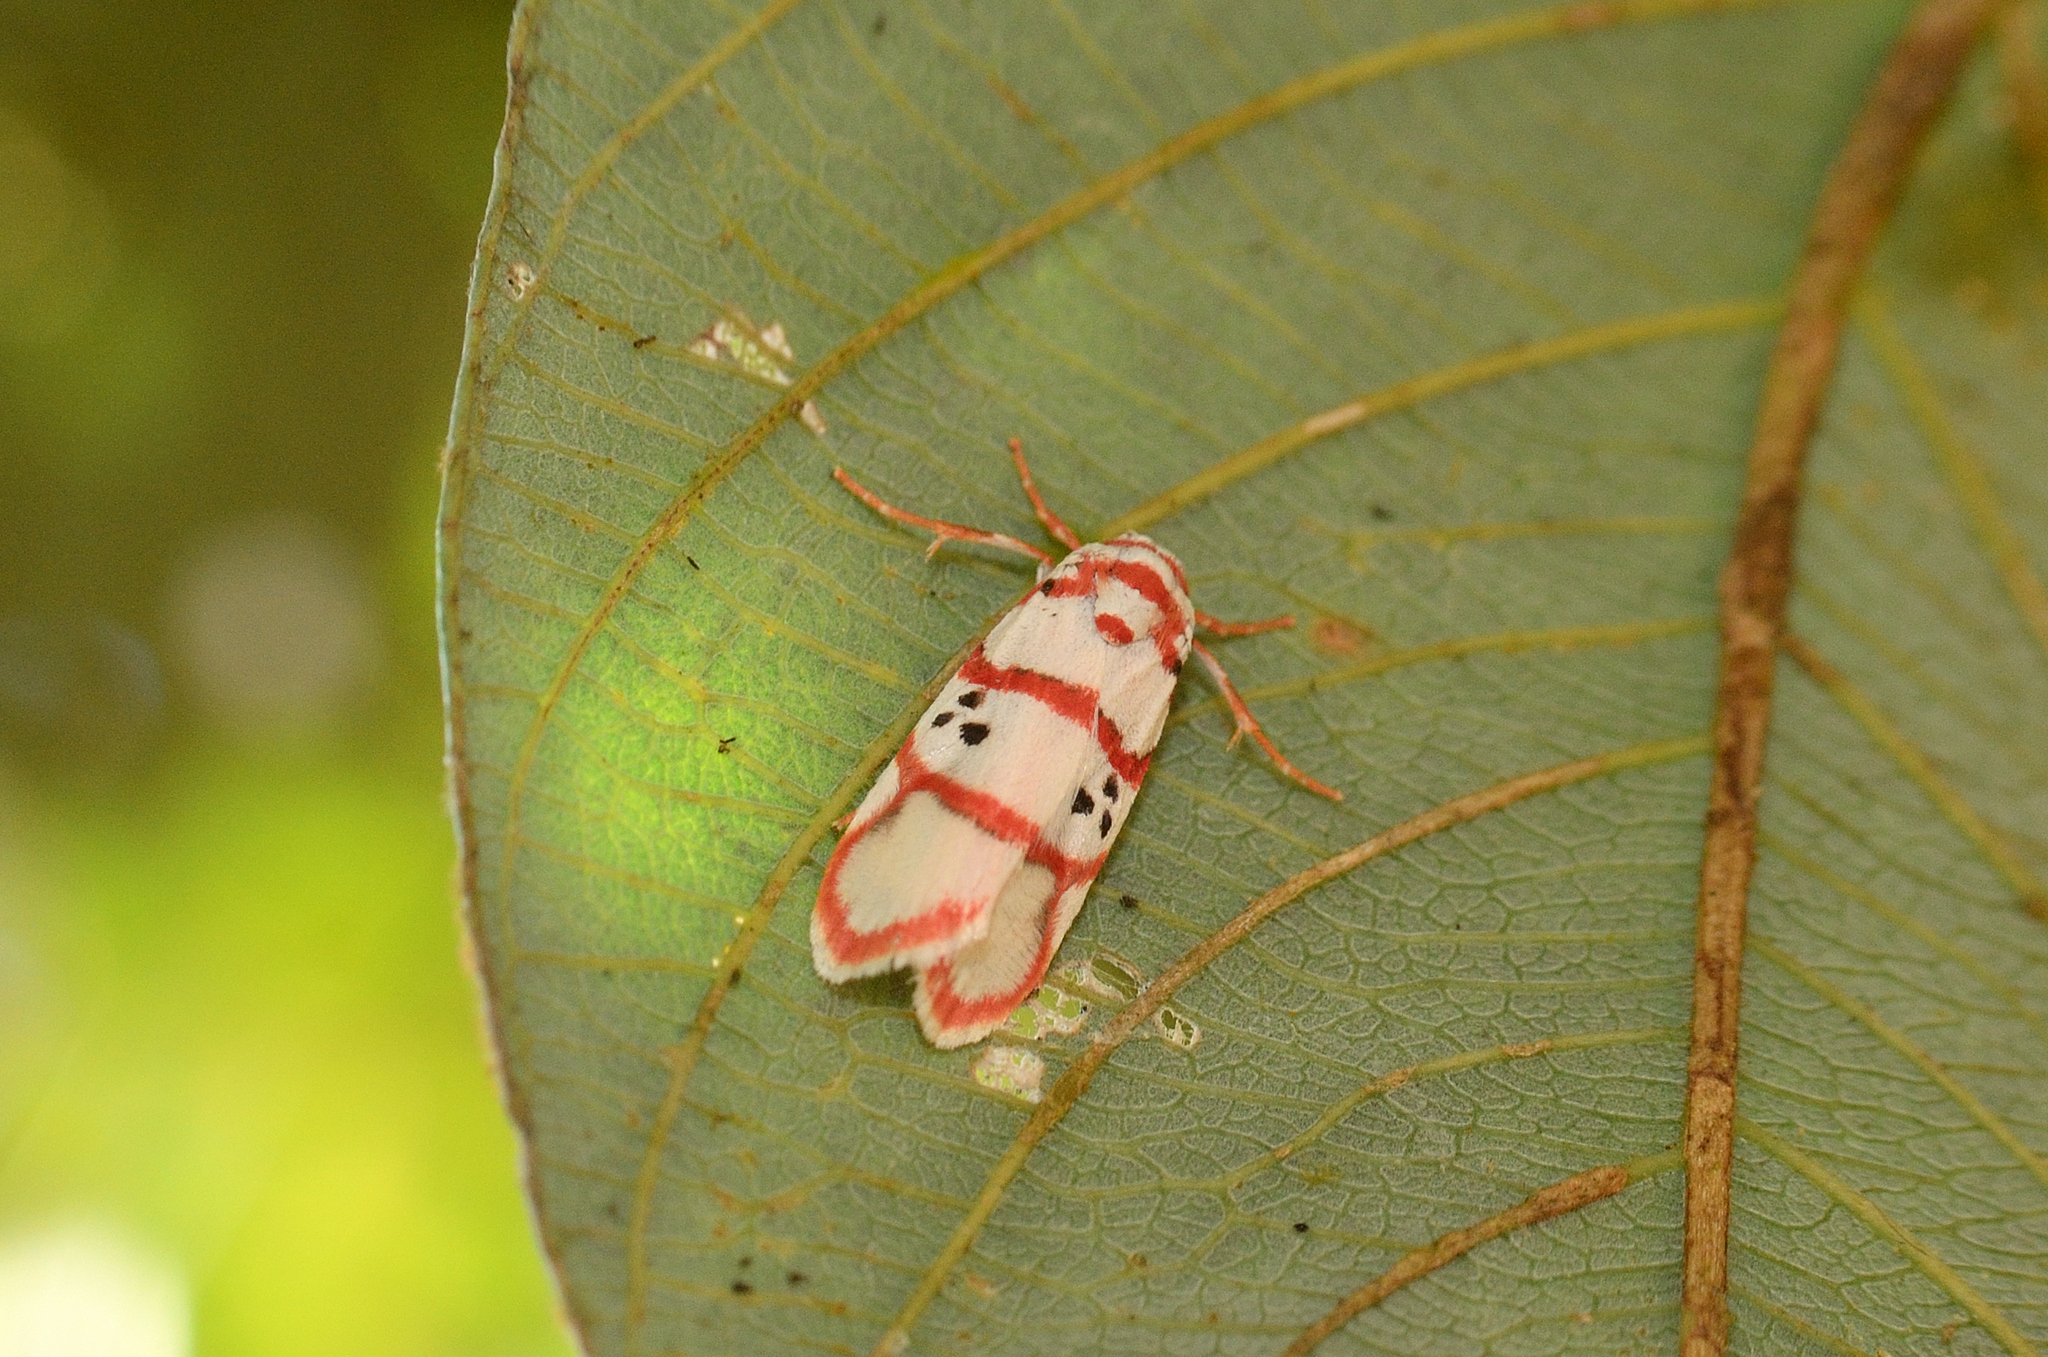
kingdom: Animalia
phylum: Arthropoda
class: Insecta
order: Lepidoptera
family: Erebidae
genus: Cyana
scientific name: Cyana peregrina
